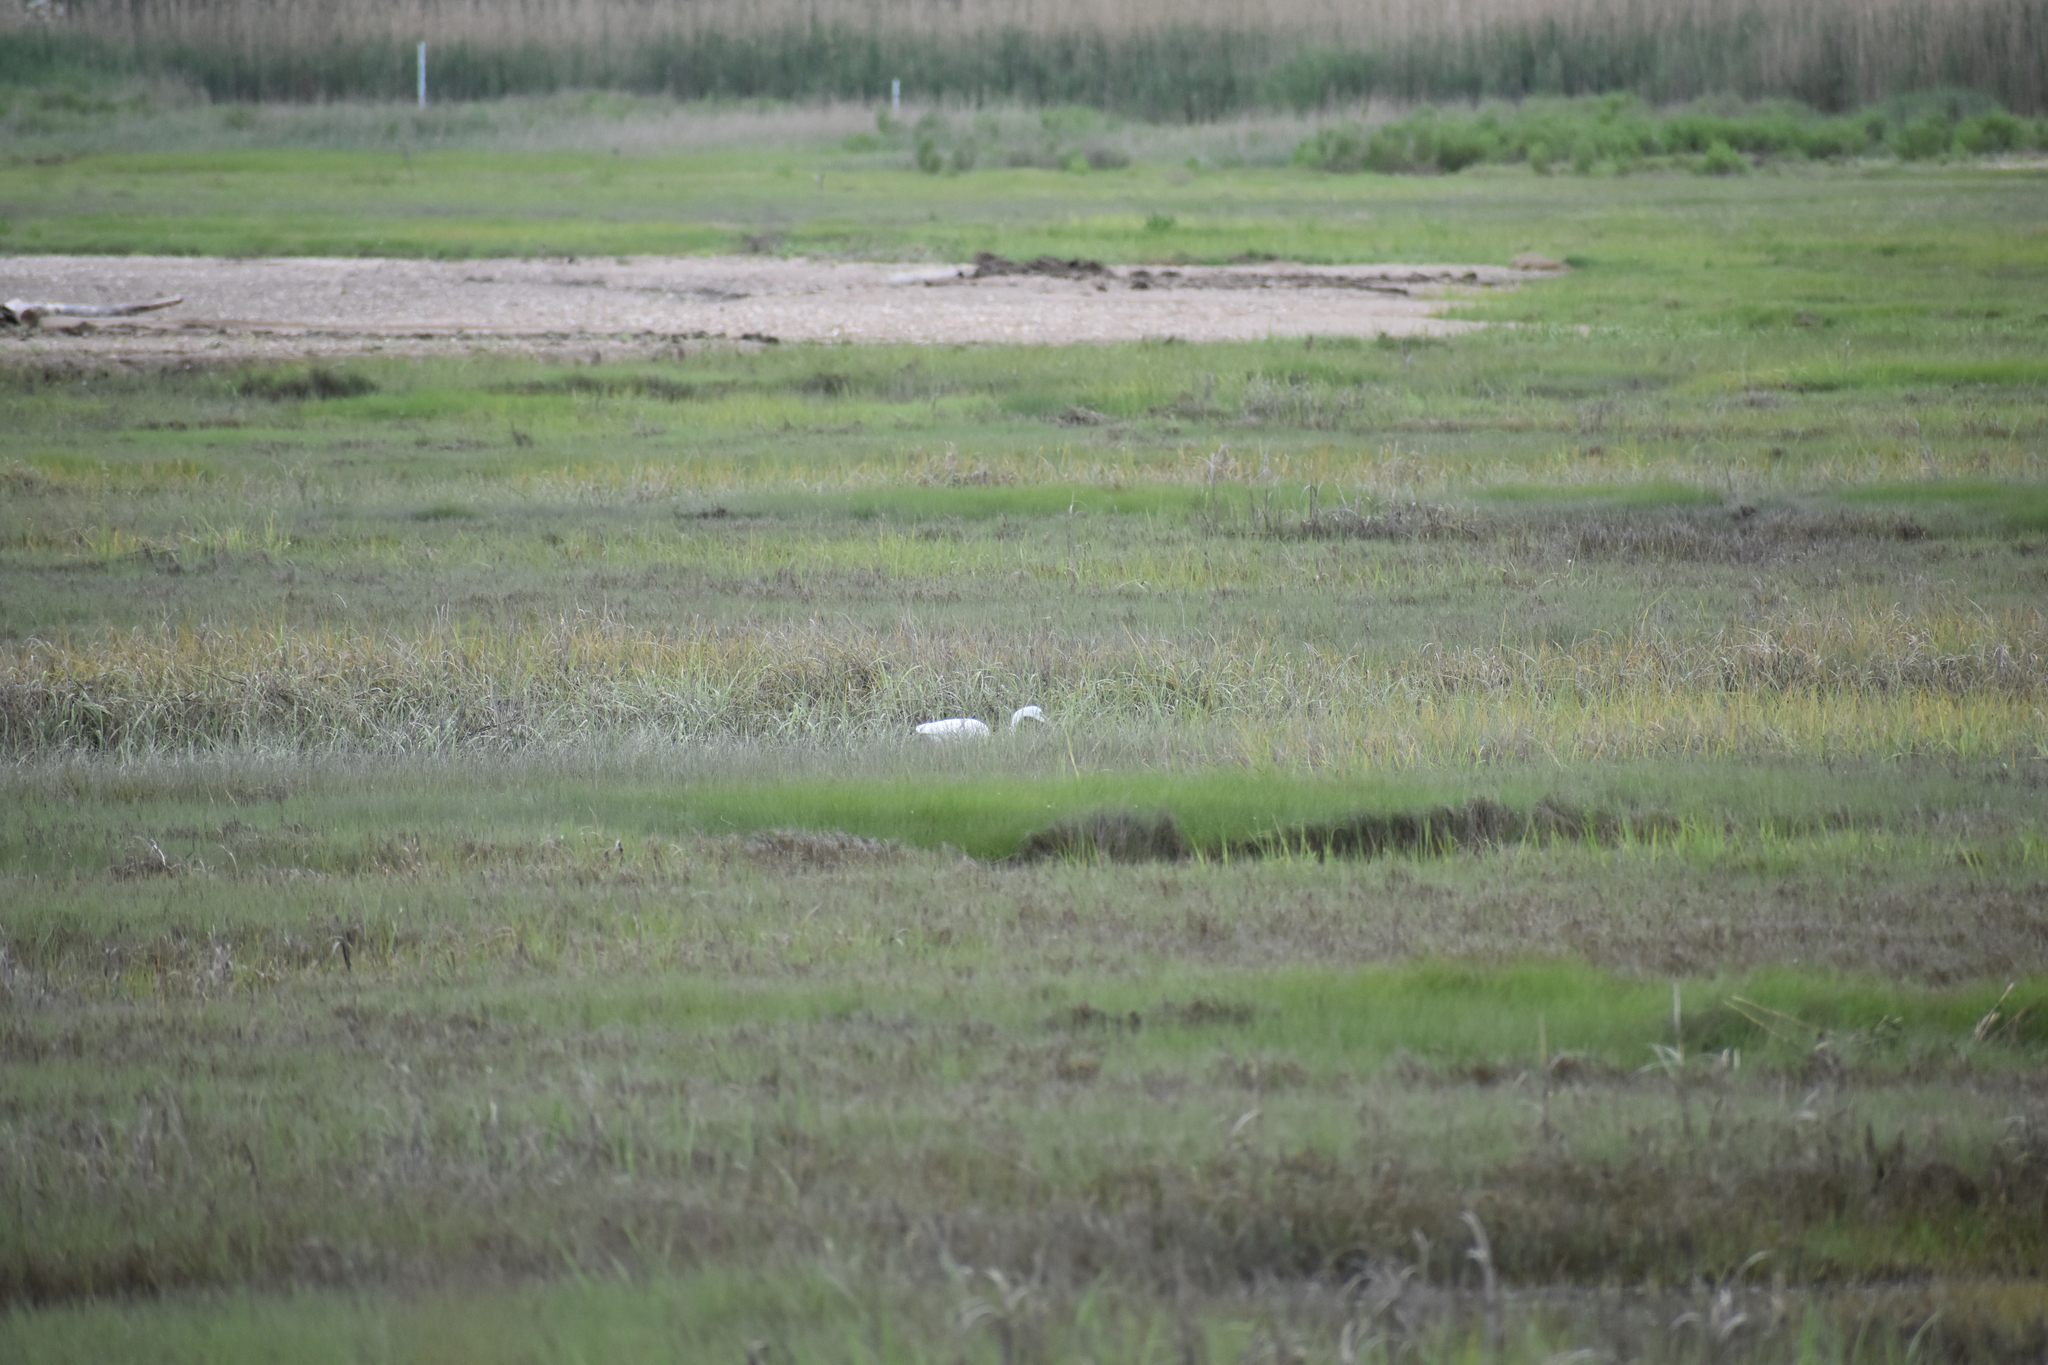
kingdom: Animalia
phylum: Chordata
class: Aves
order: Pelecaniformes
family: Ardeidae
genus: Ardea
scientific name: Ardea alba
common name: Great egret
